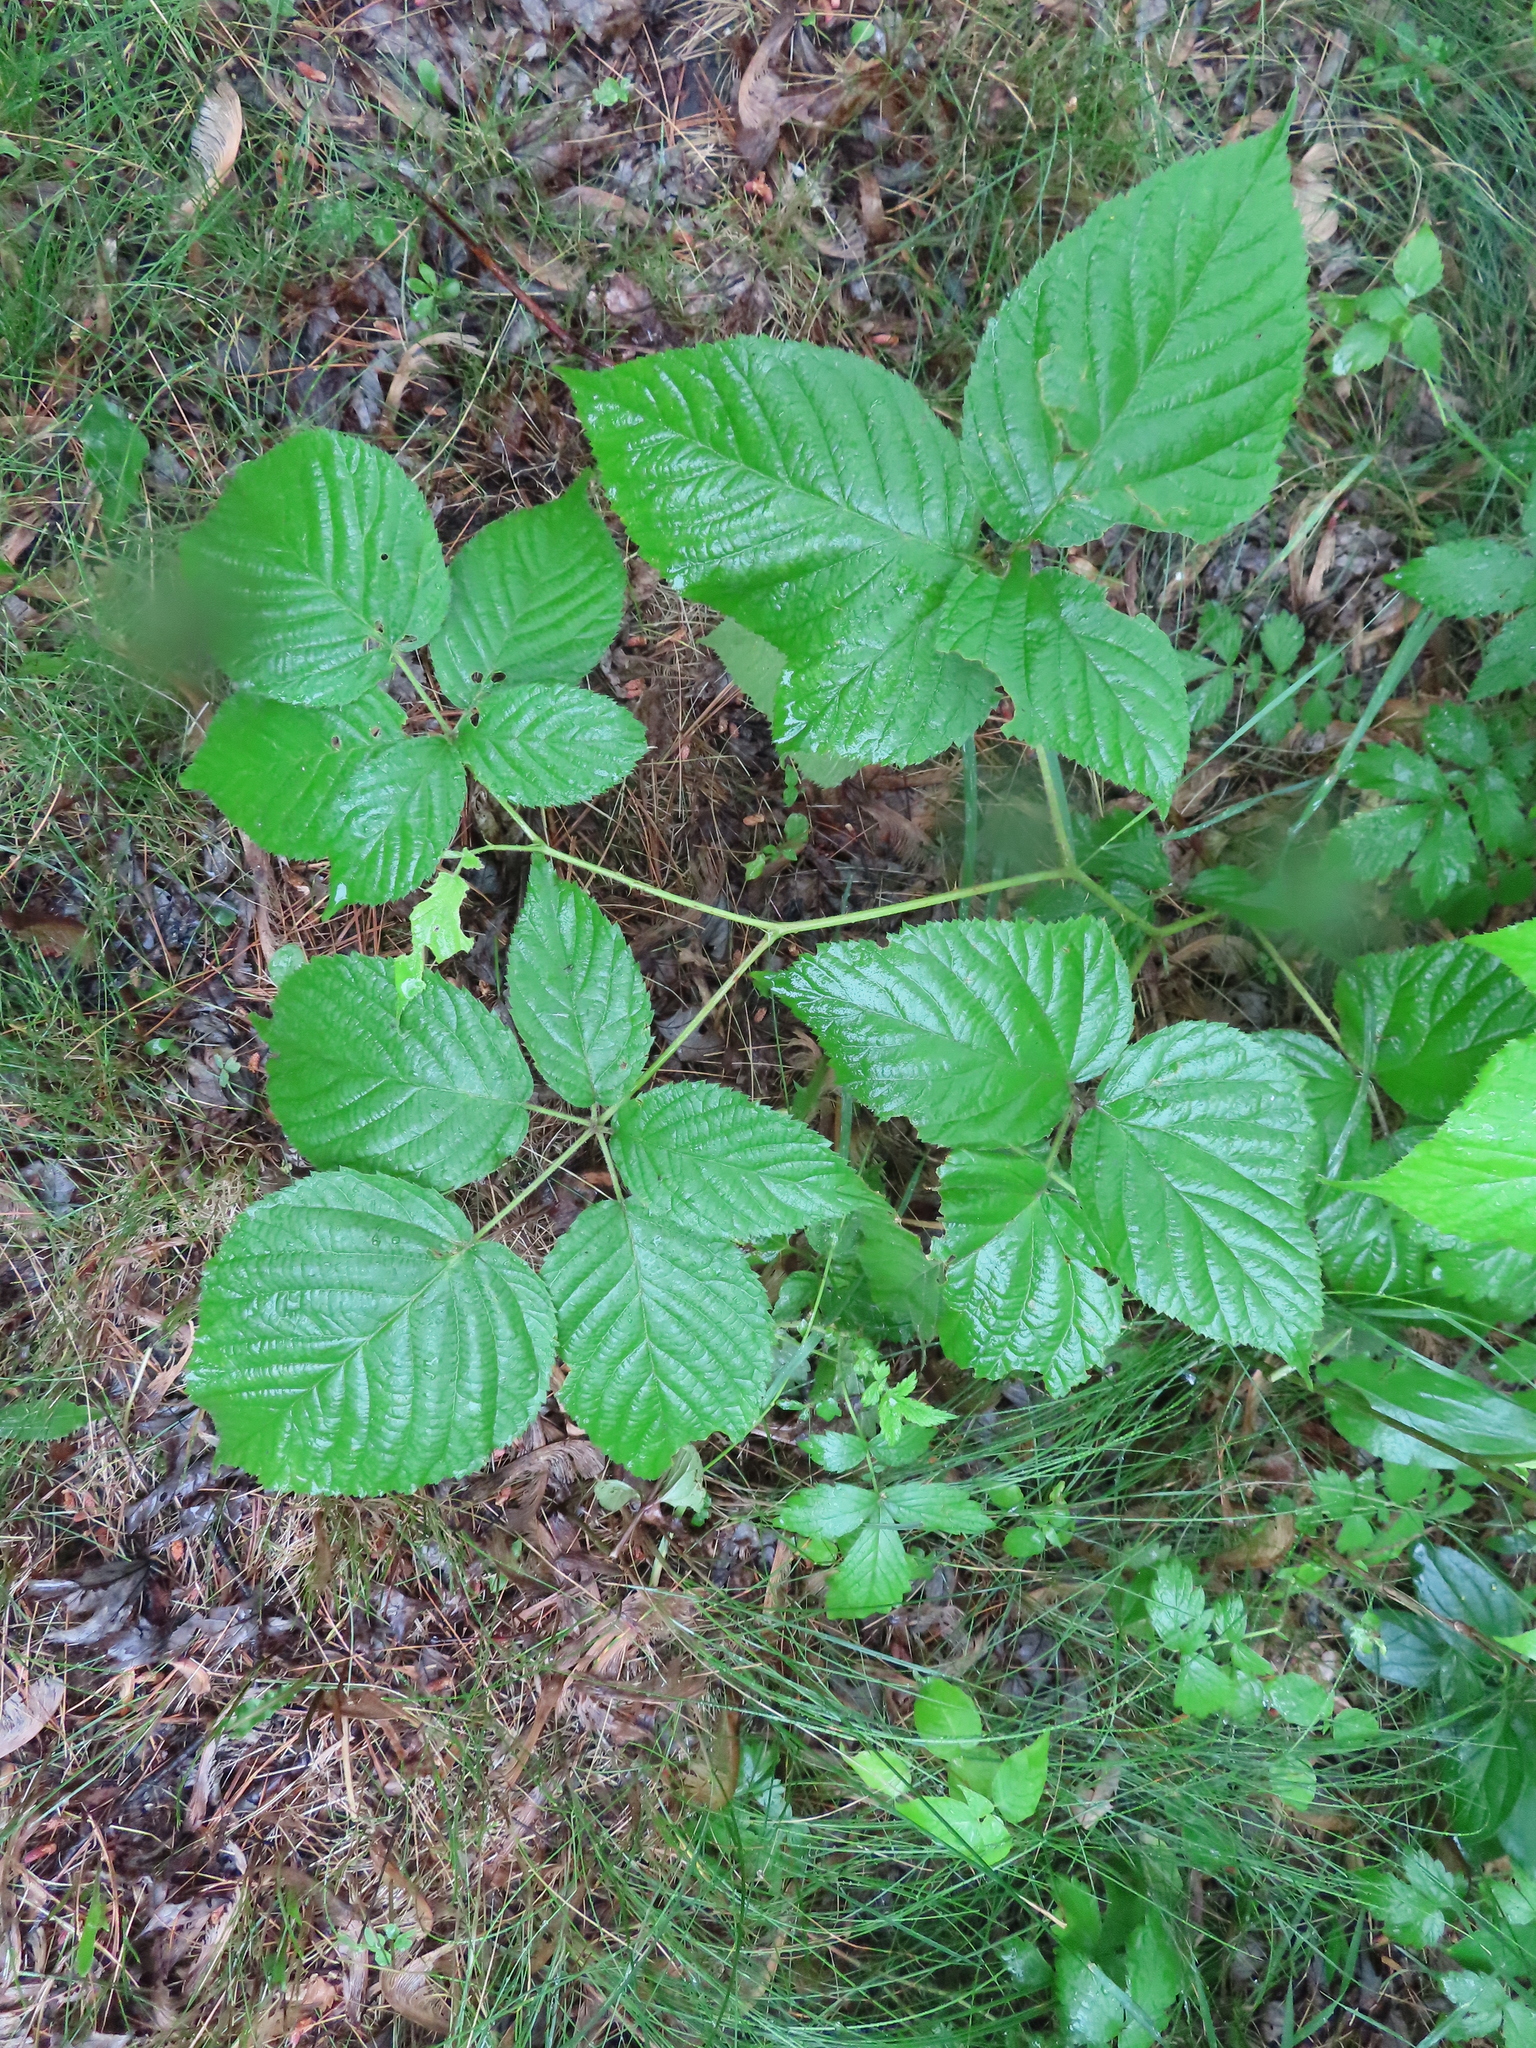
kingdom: Plantae
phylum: Tracheophyta
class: Magnoliopsida
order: Rosales
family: Rosaceae
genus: Rubus
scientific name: Rubus allegheniensis
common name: Allegheny blackberry
